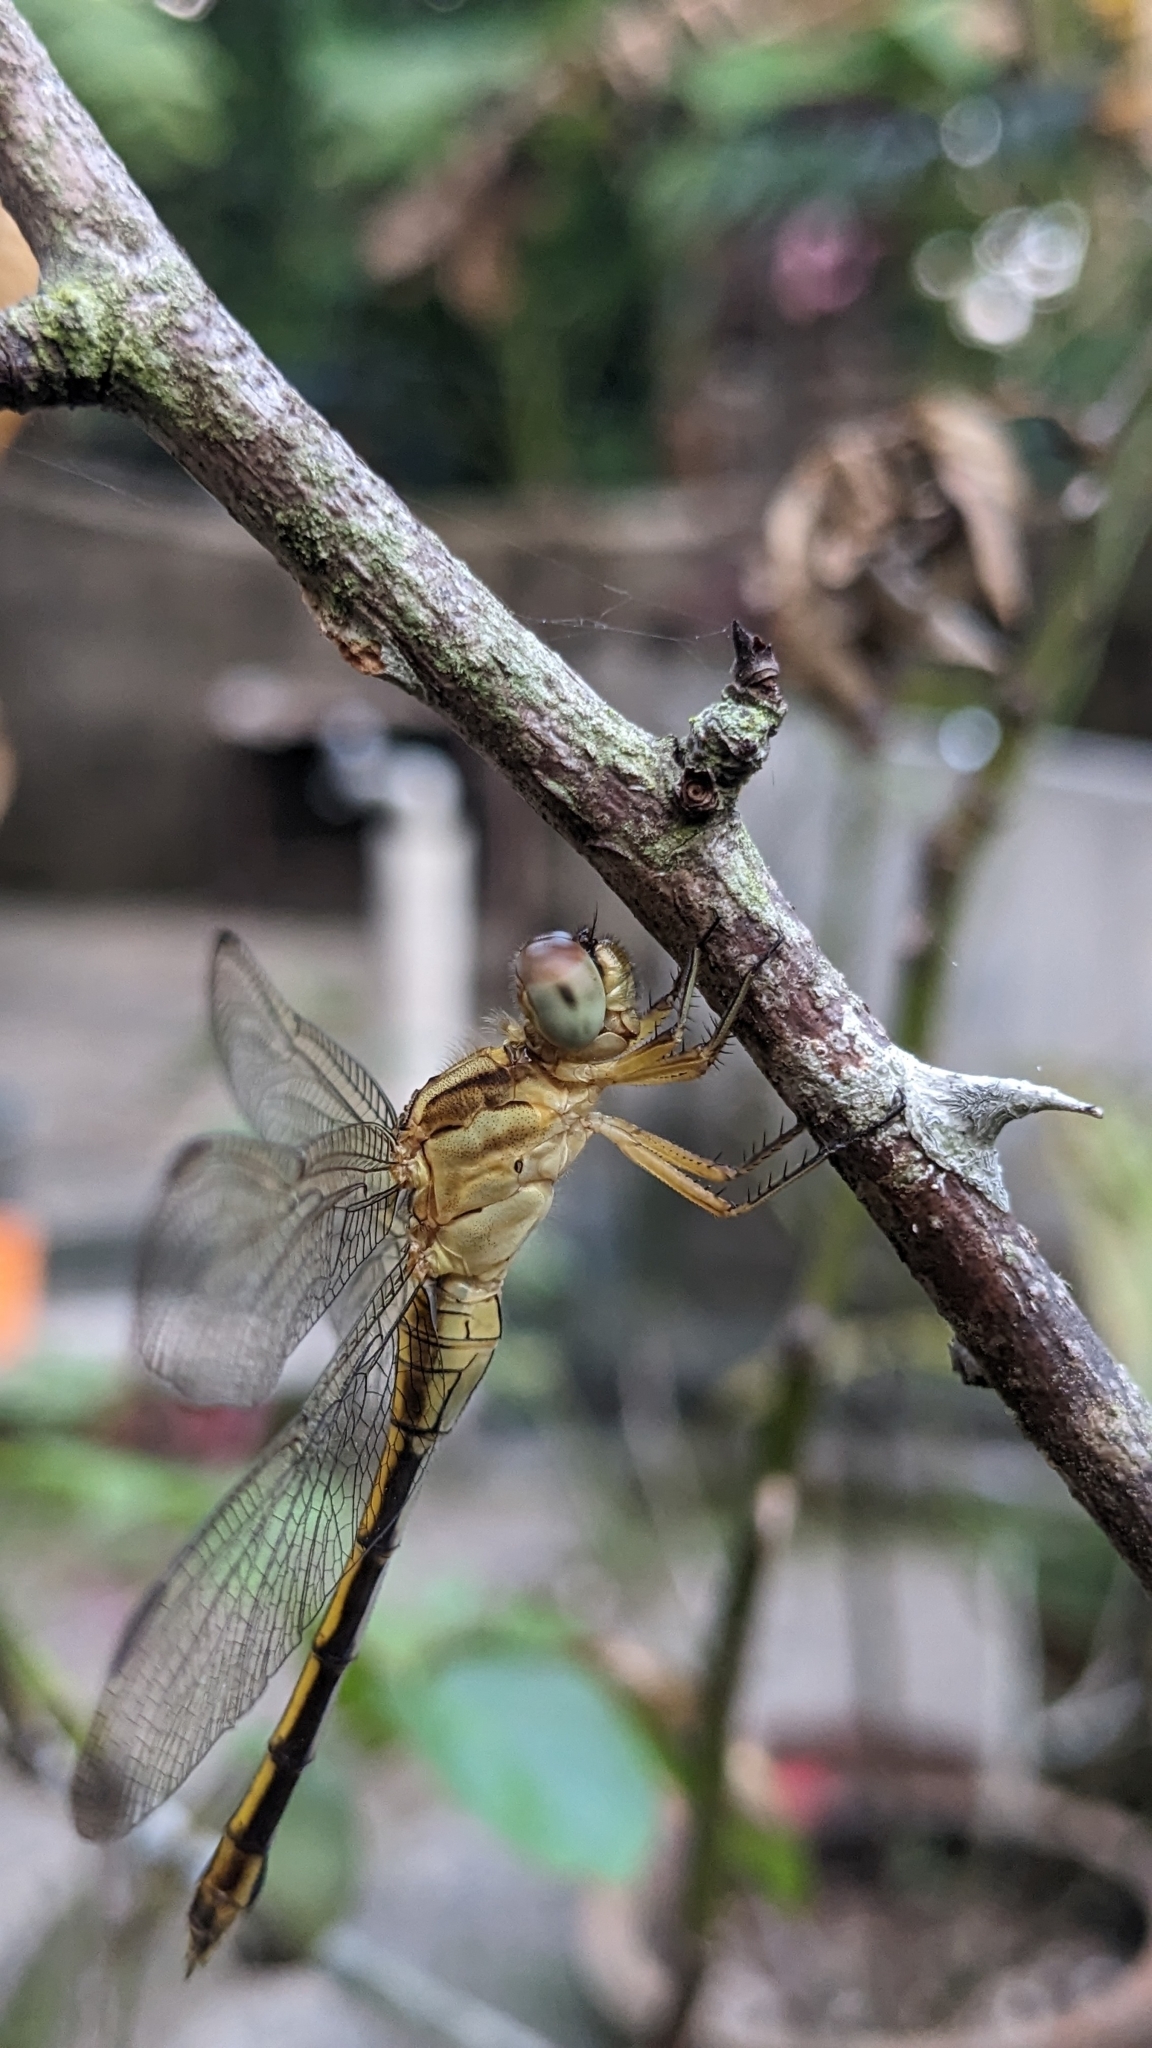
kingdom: Animalia
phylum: Arthropoda
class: Insecta
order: Odonata
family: Libellulidae
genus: Orthetrum
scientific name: Orthetrum luzonicum
